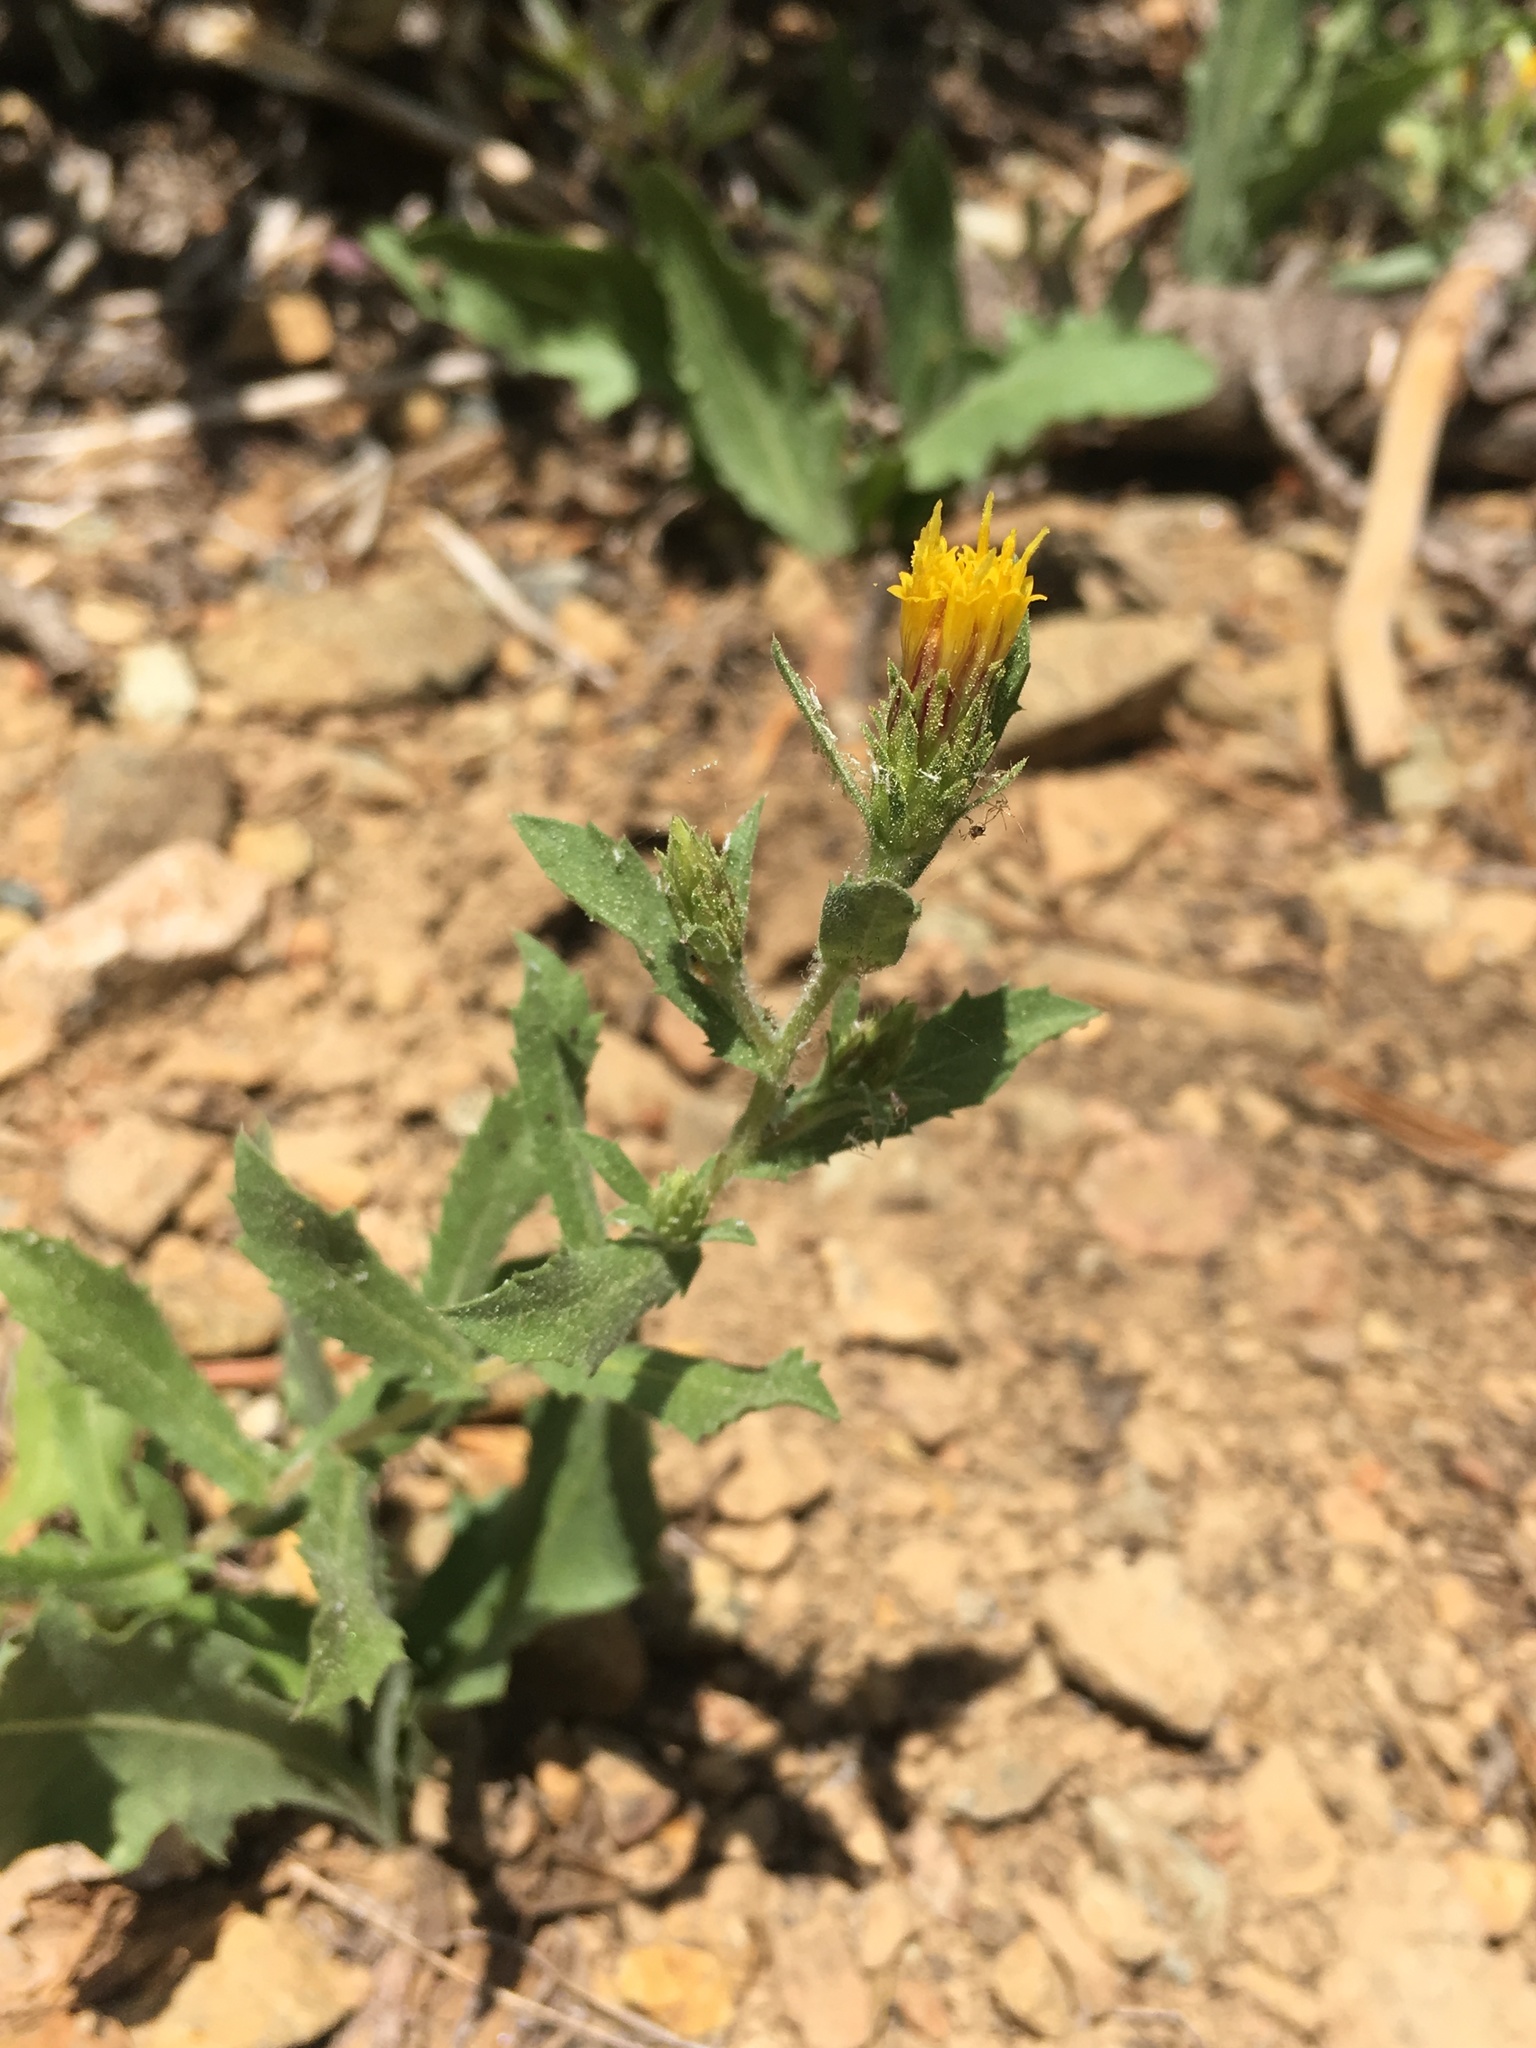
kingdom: Plantae
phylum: Tracheophyta
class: Magnoliopsida
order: Asterales
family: Asteraceae
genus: Adeia
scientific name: Adeia discoidea
